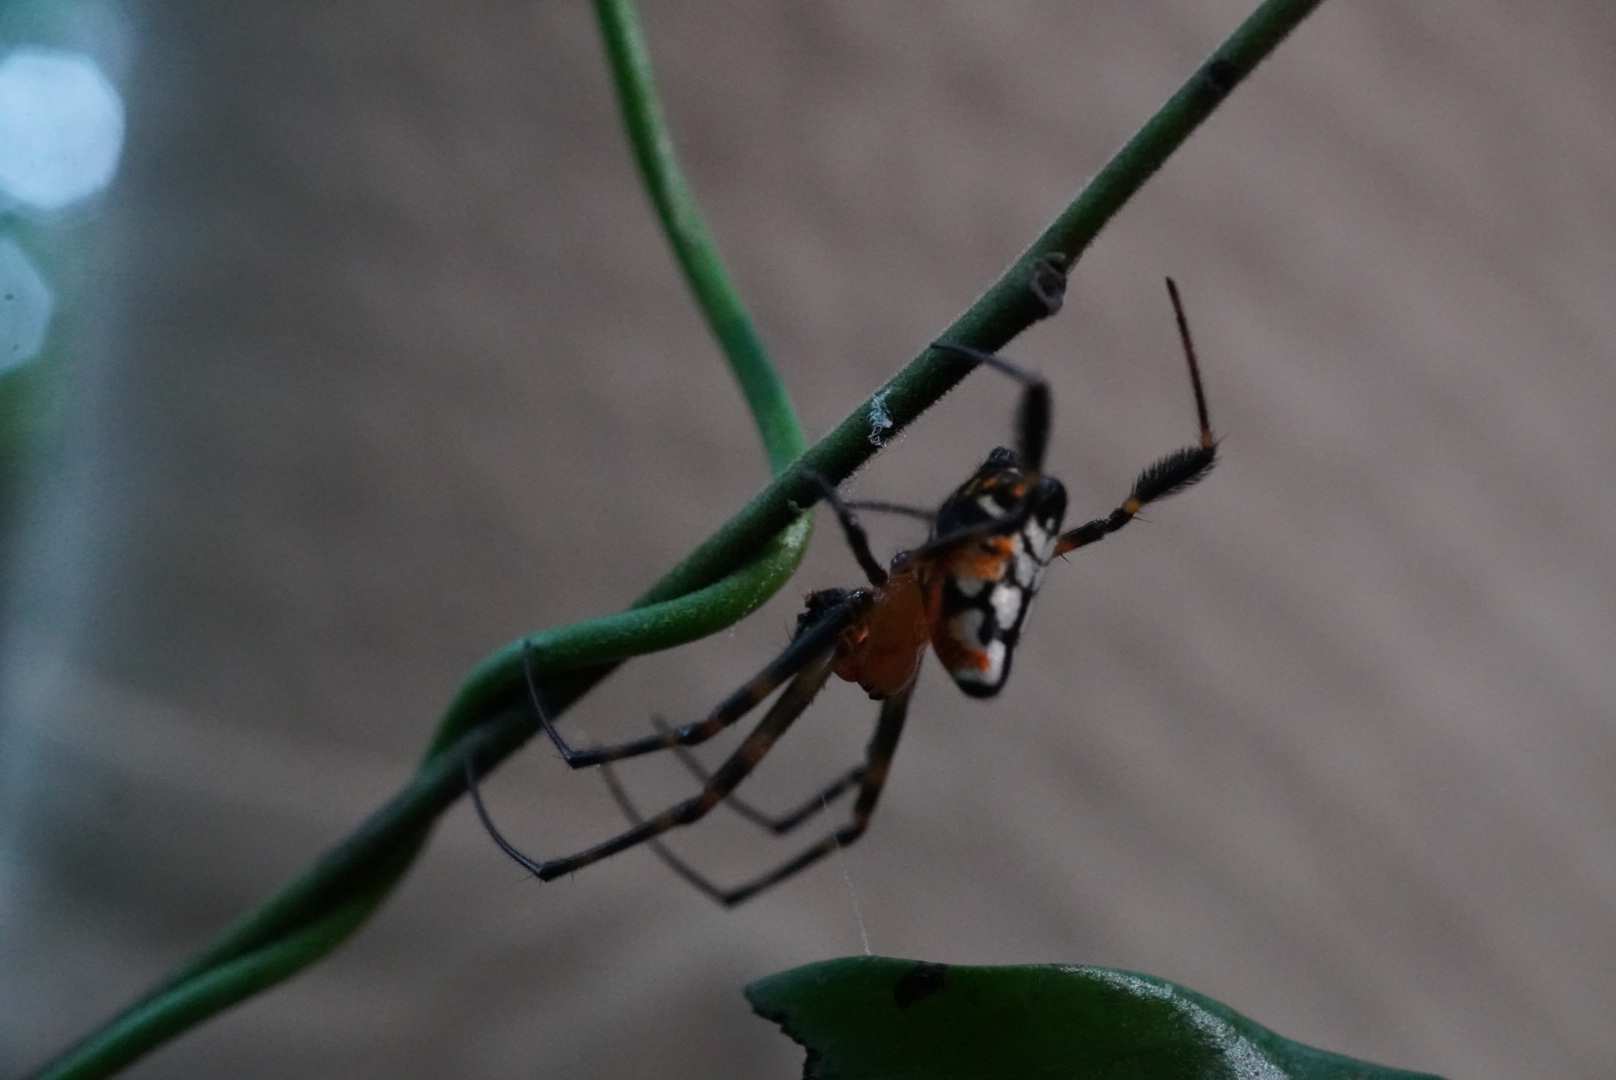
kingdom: Animalia
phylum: Arthropoda
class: Arachnida
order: Araneae
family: Tetragnathidae
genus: Leucauge
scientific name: Leucauge fastigata
